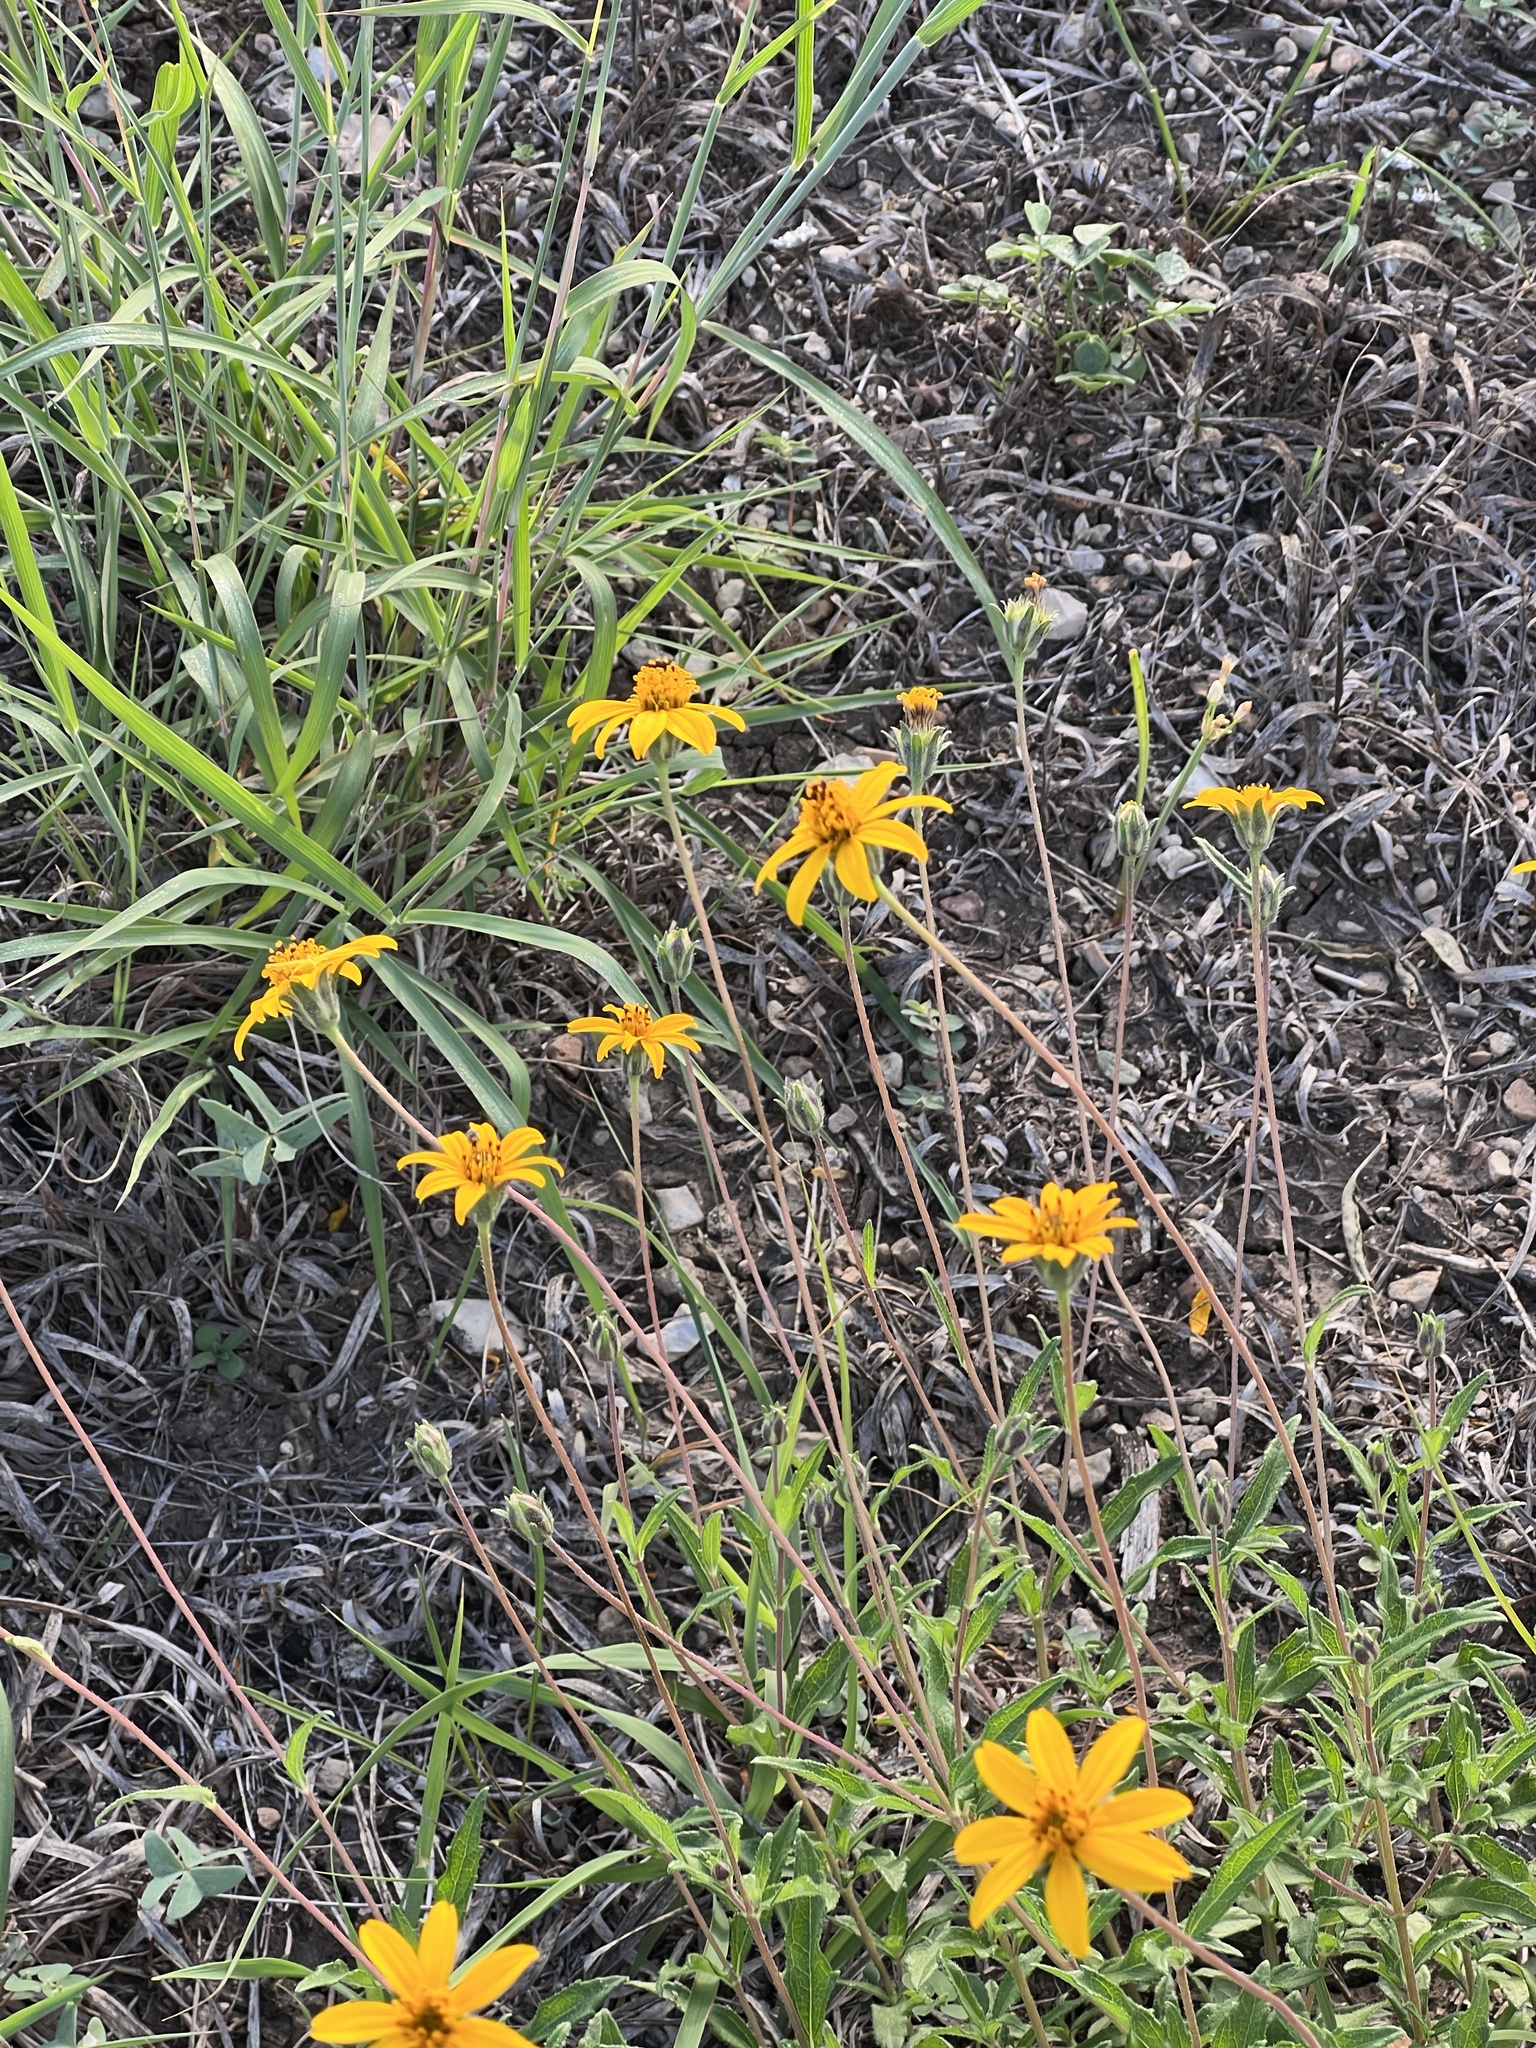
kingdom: Plantae
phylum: Tracheophyta
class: Magnoliopsida
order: Asterales
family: Asteraceae
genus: Wedelia
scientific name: Wedelia acapulcensis
